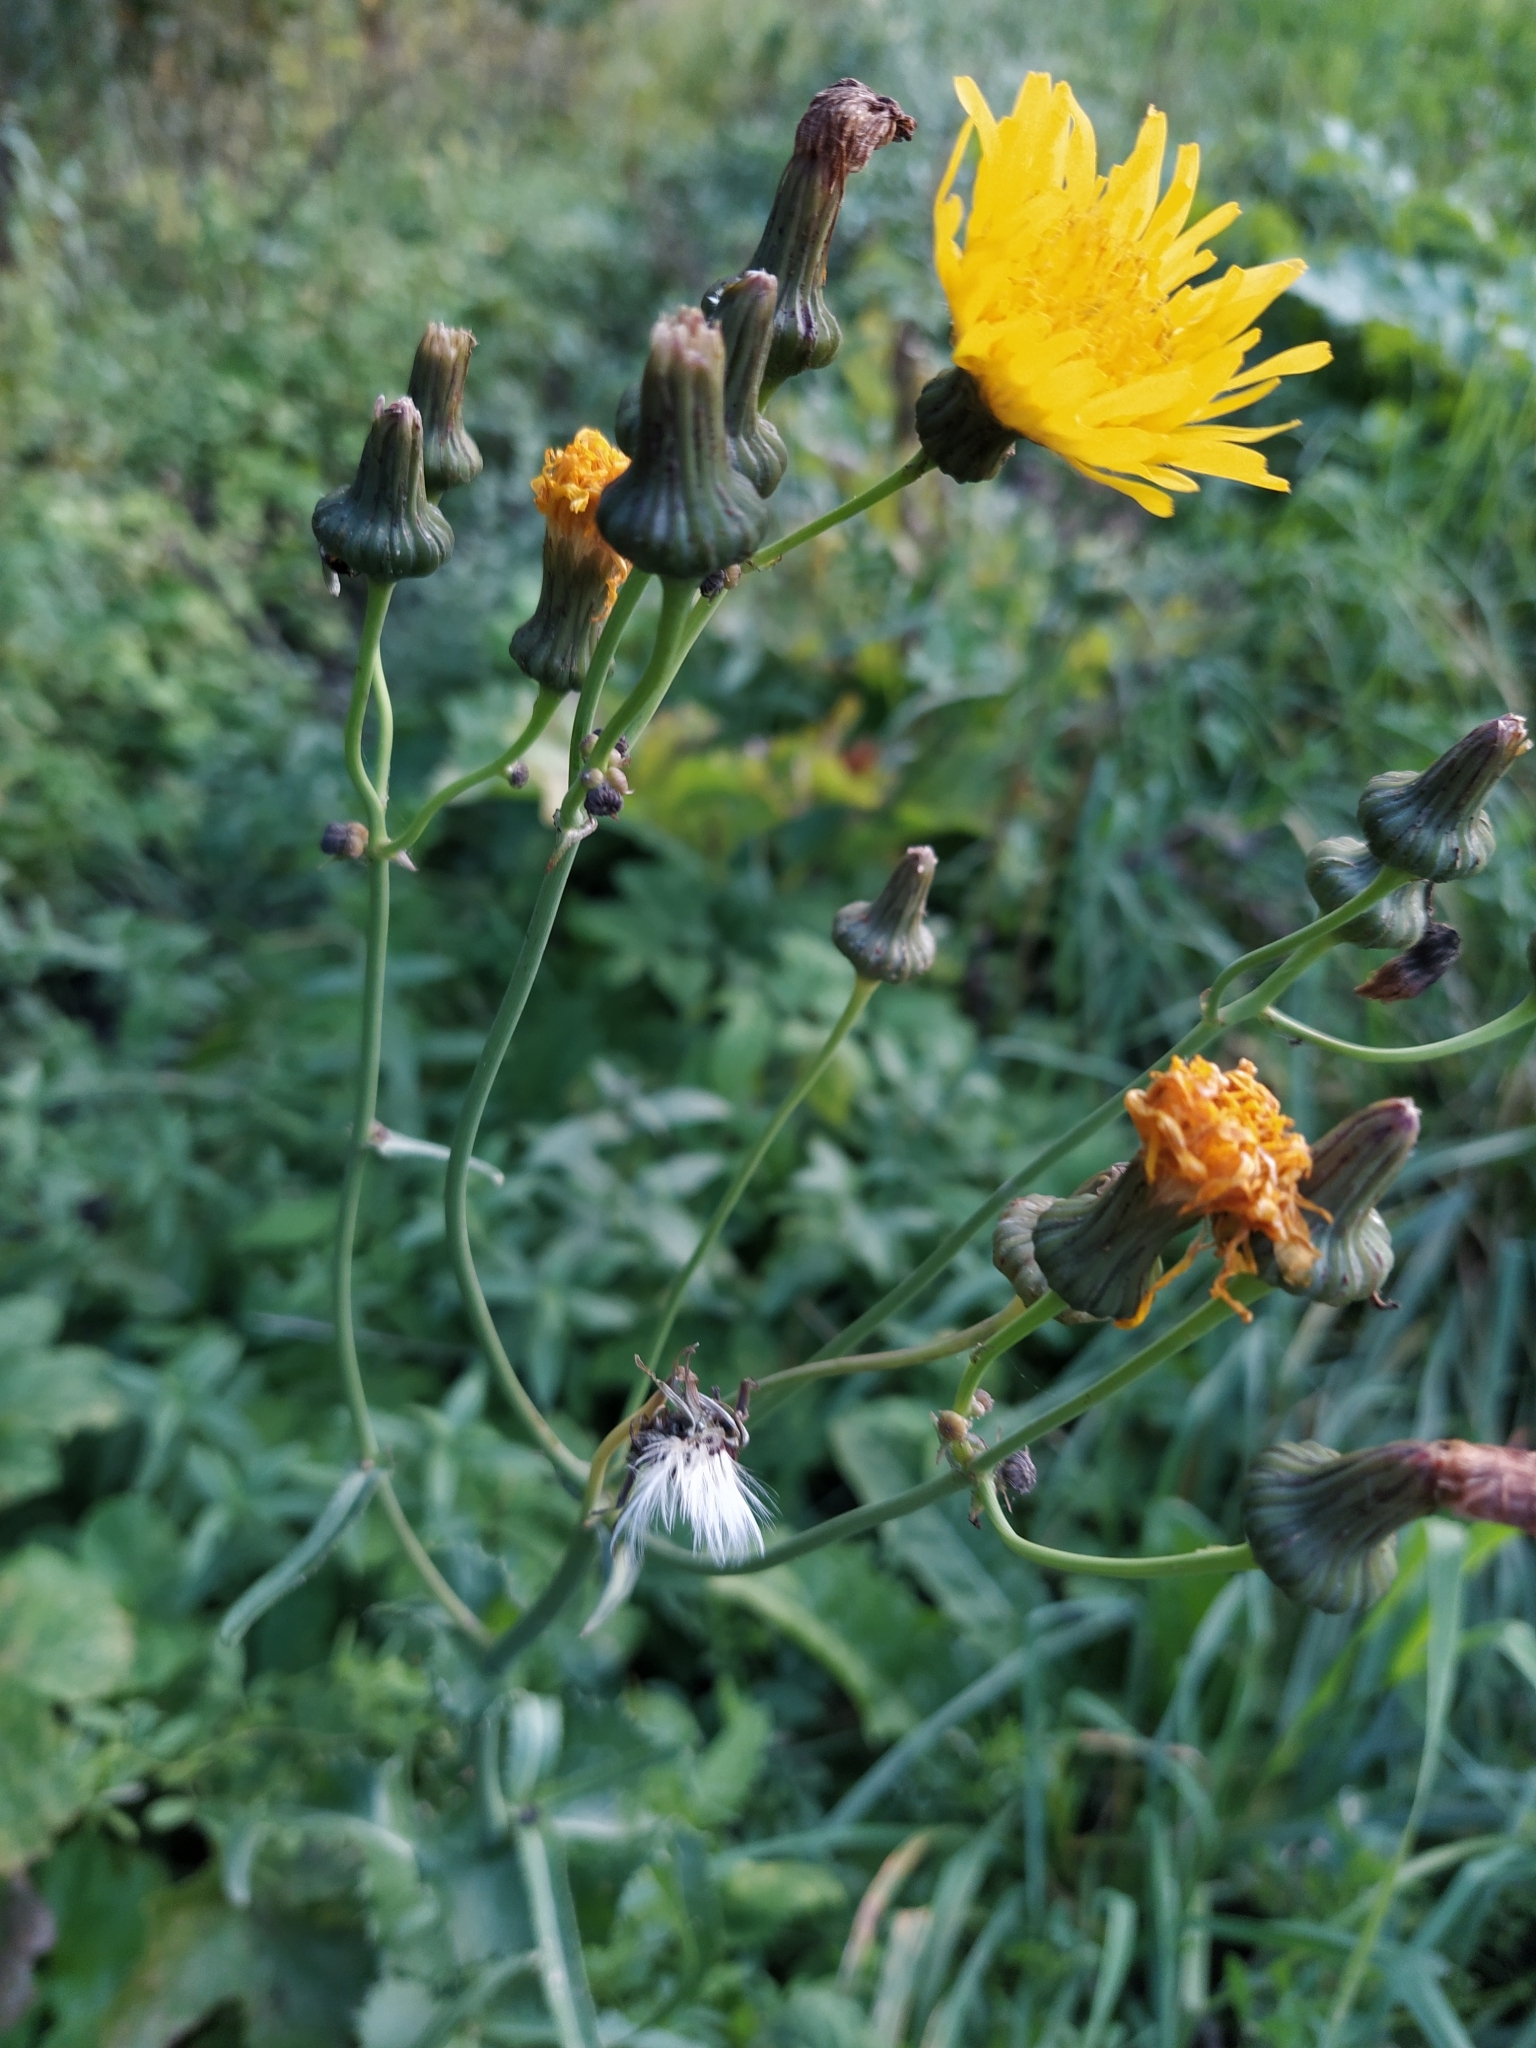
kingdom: Plantae
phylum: Tracheophyta
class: Magnoliopsida
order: Asterales
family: Asteraceae
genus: Sonchus
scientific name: Sonchus arvensis
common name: Perennial sow-thistle
